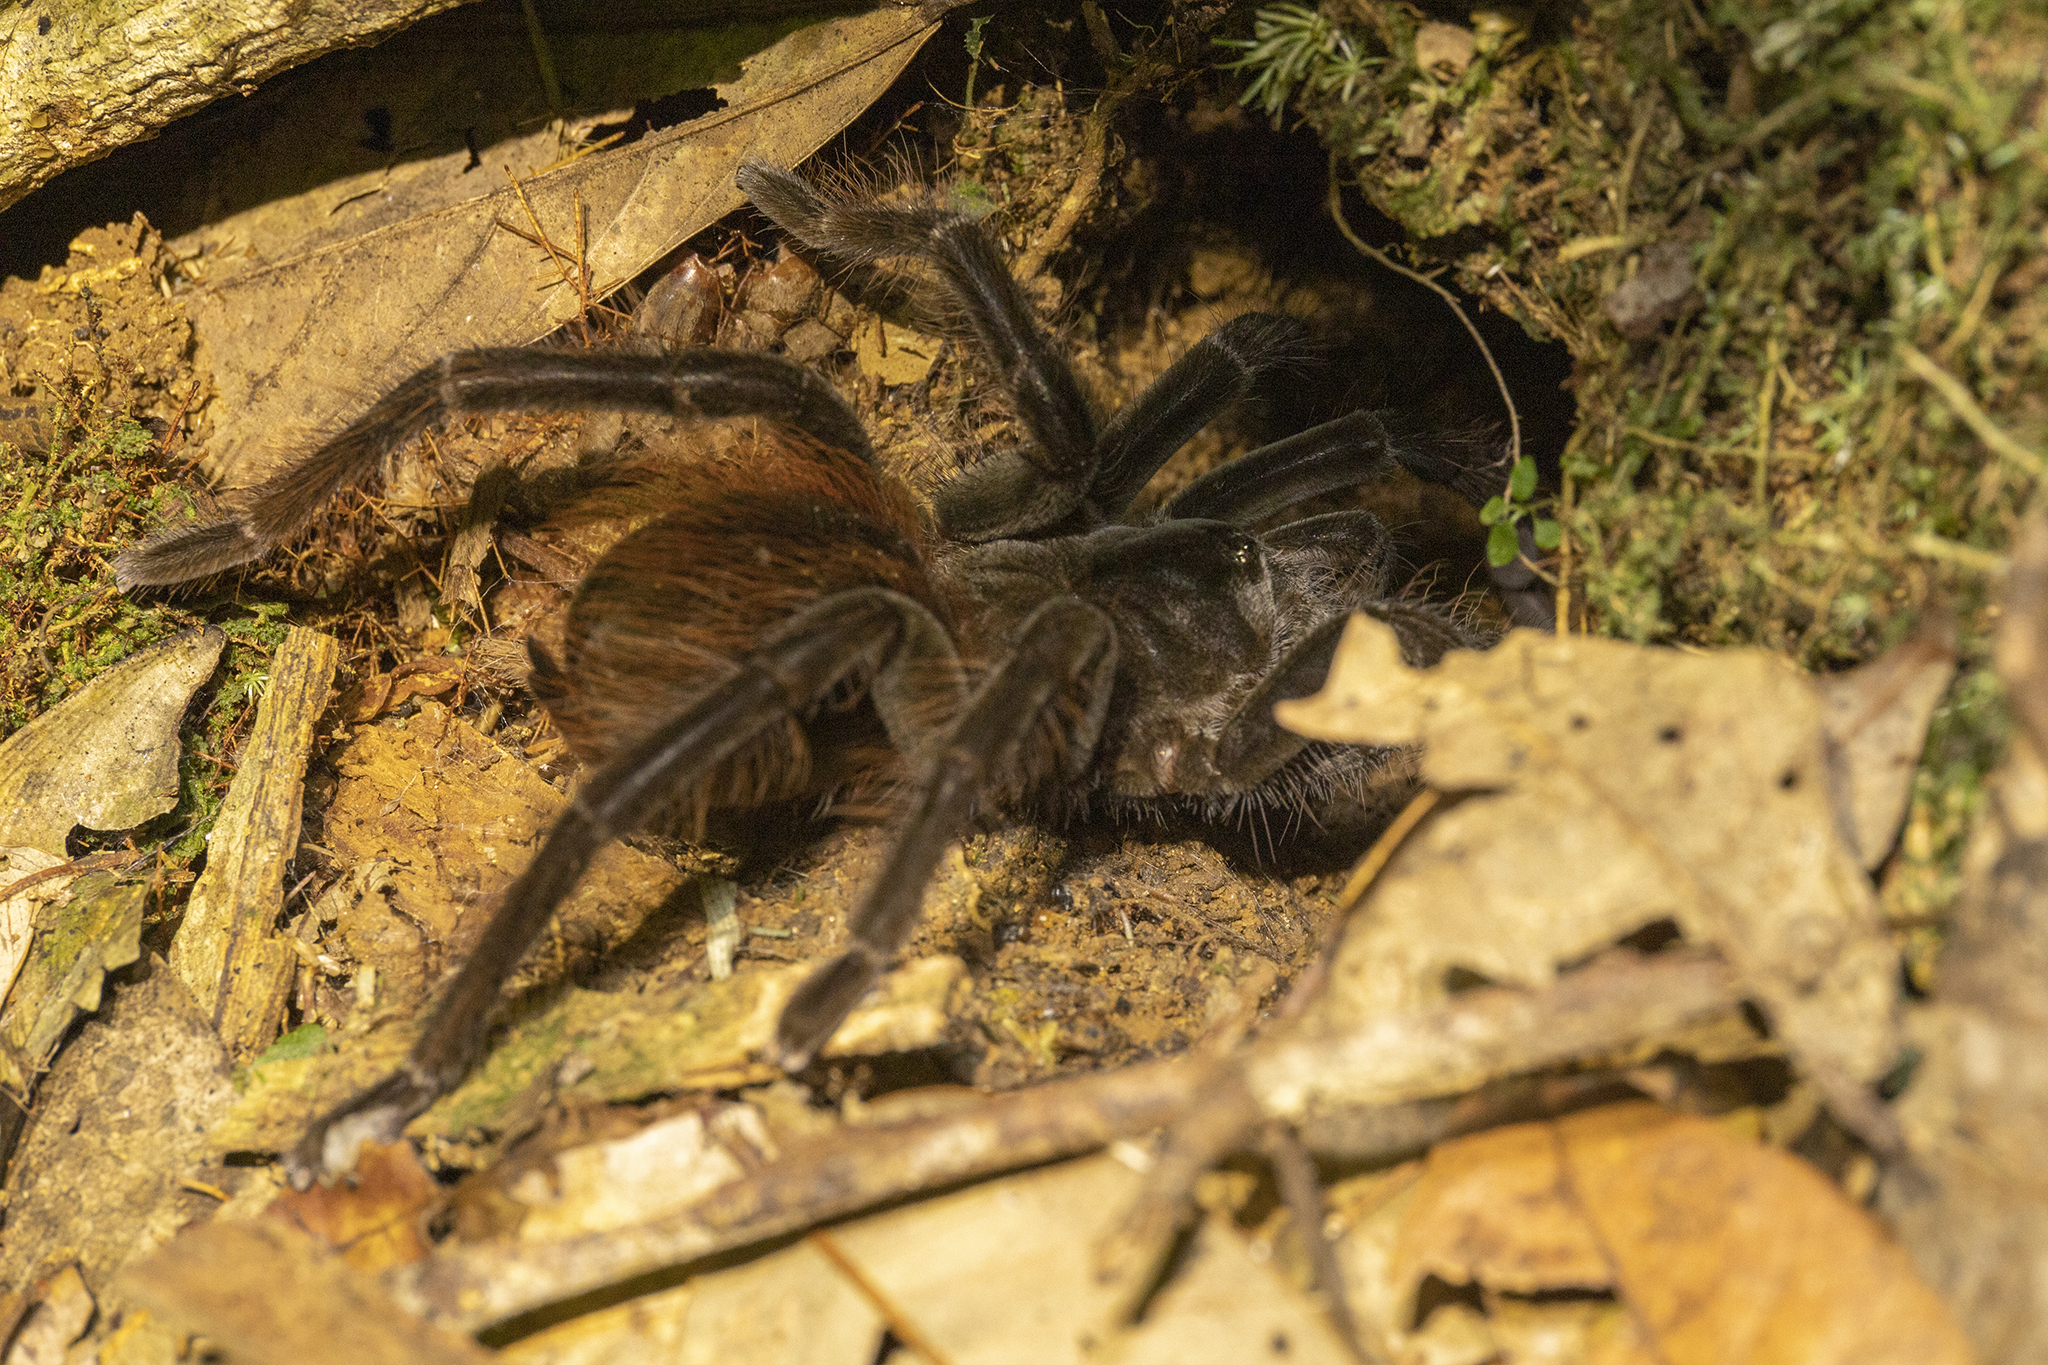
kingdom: Animalia
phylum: Arthropoda
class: Arachnida
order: Araneae
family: Theraphosidae
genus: Megaphobema
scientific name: Megaphobema velvetosoma
